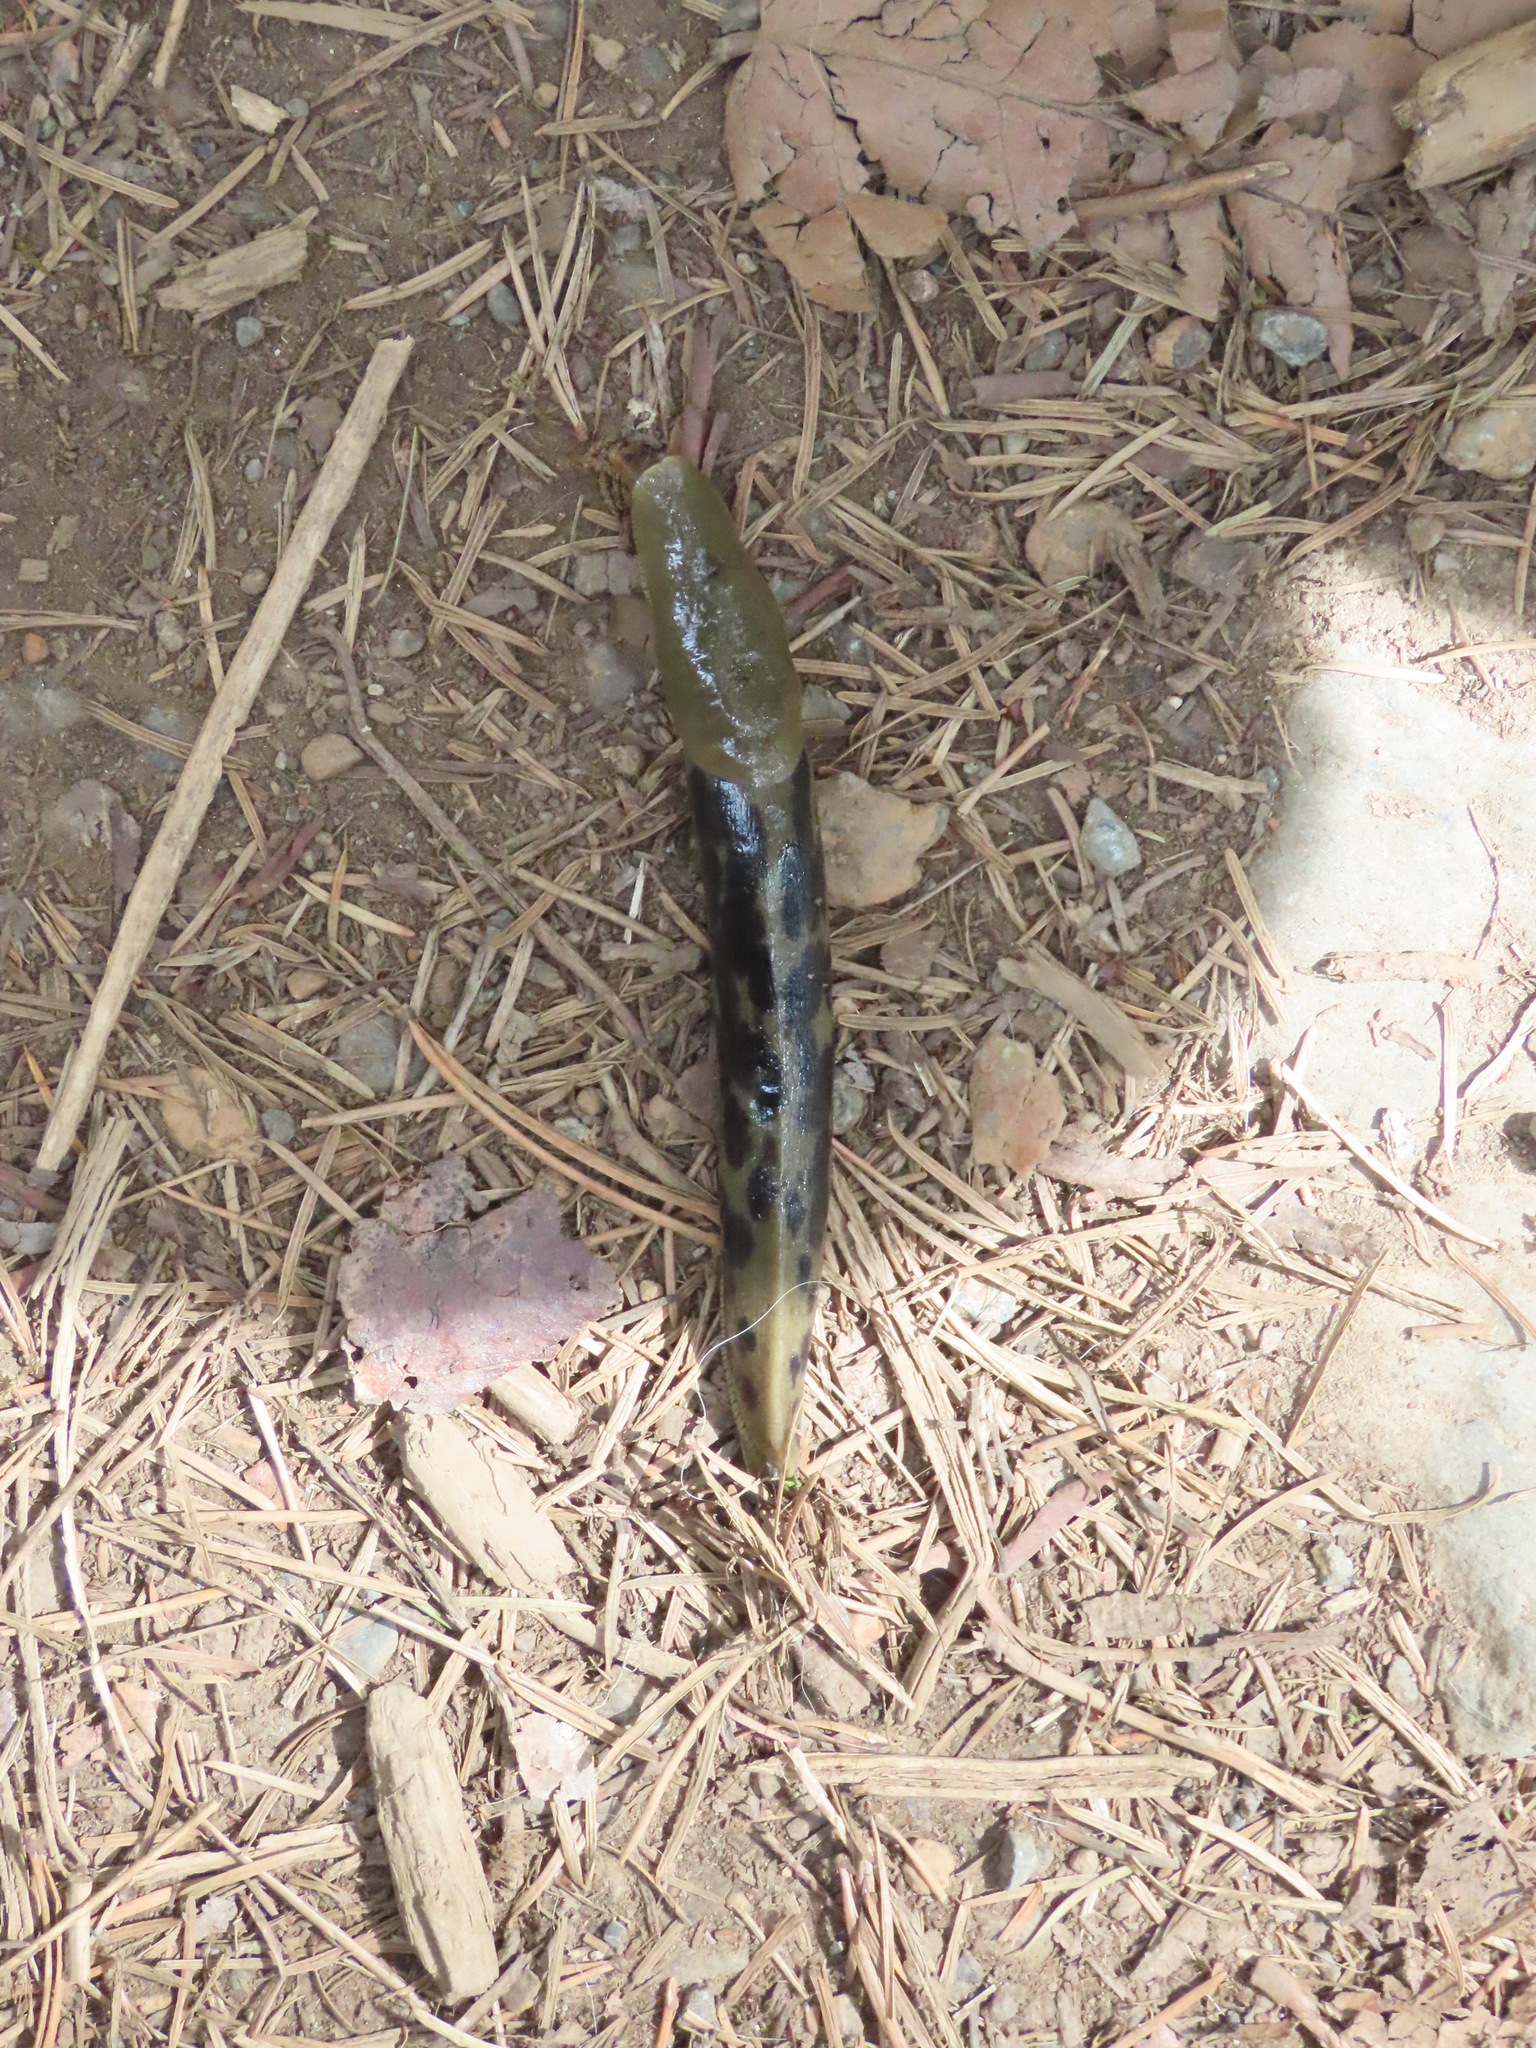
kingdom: Animalia
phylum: Mollusca
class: Gastropoda
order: Stylommatophora
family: Ariolimacidae
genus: Ariolimax
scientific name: Ariolimax columbianus
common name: Pacific banana slug
